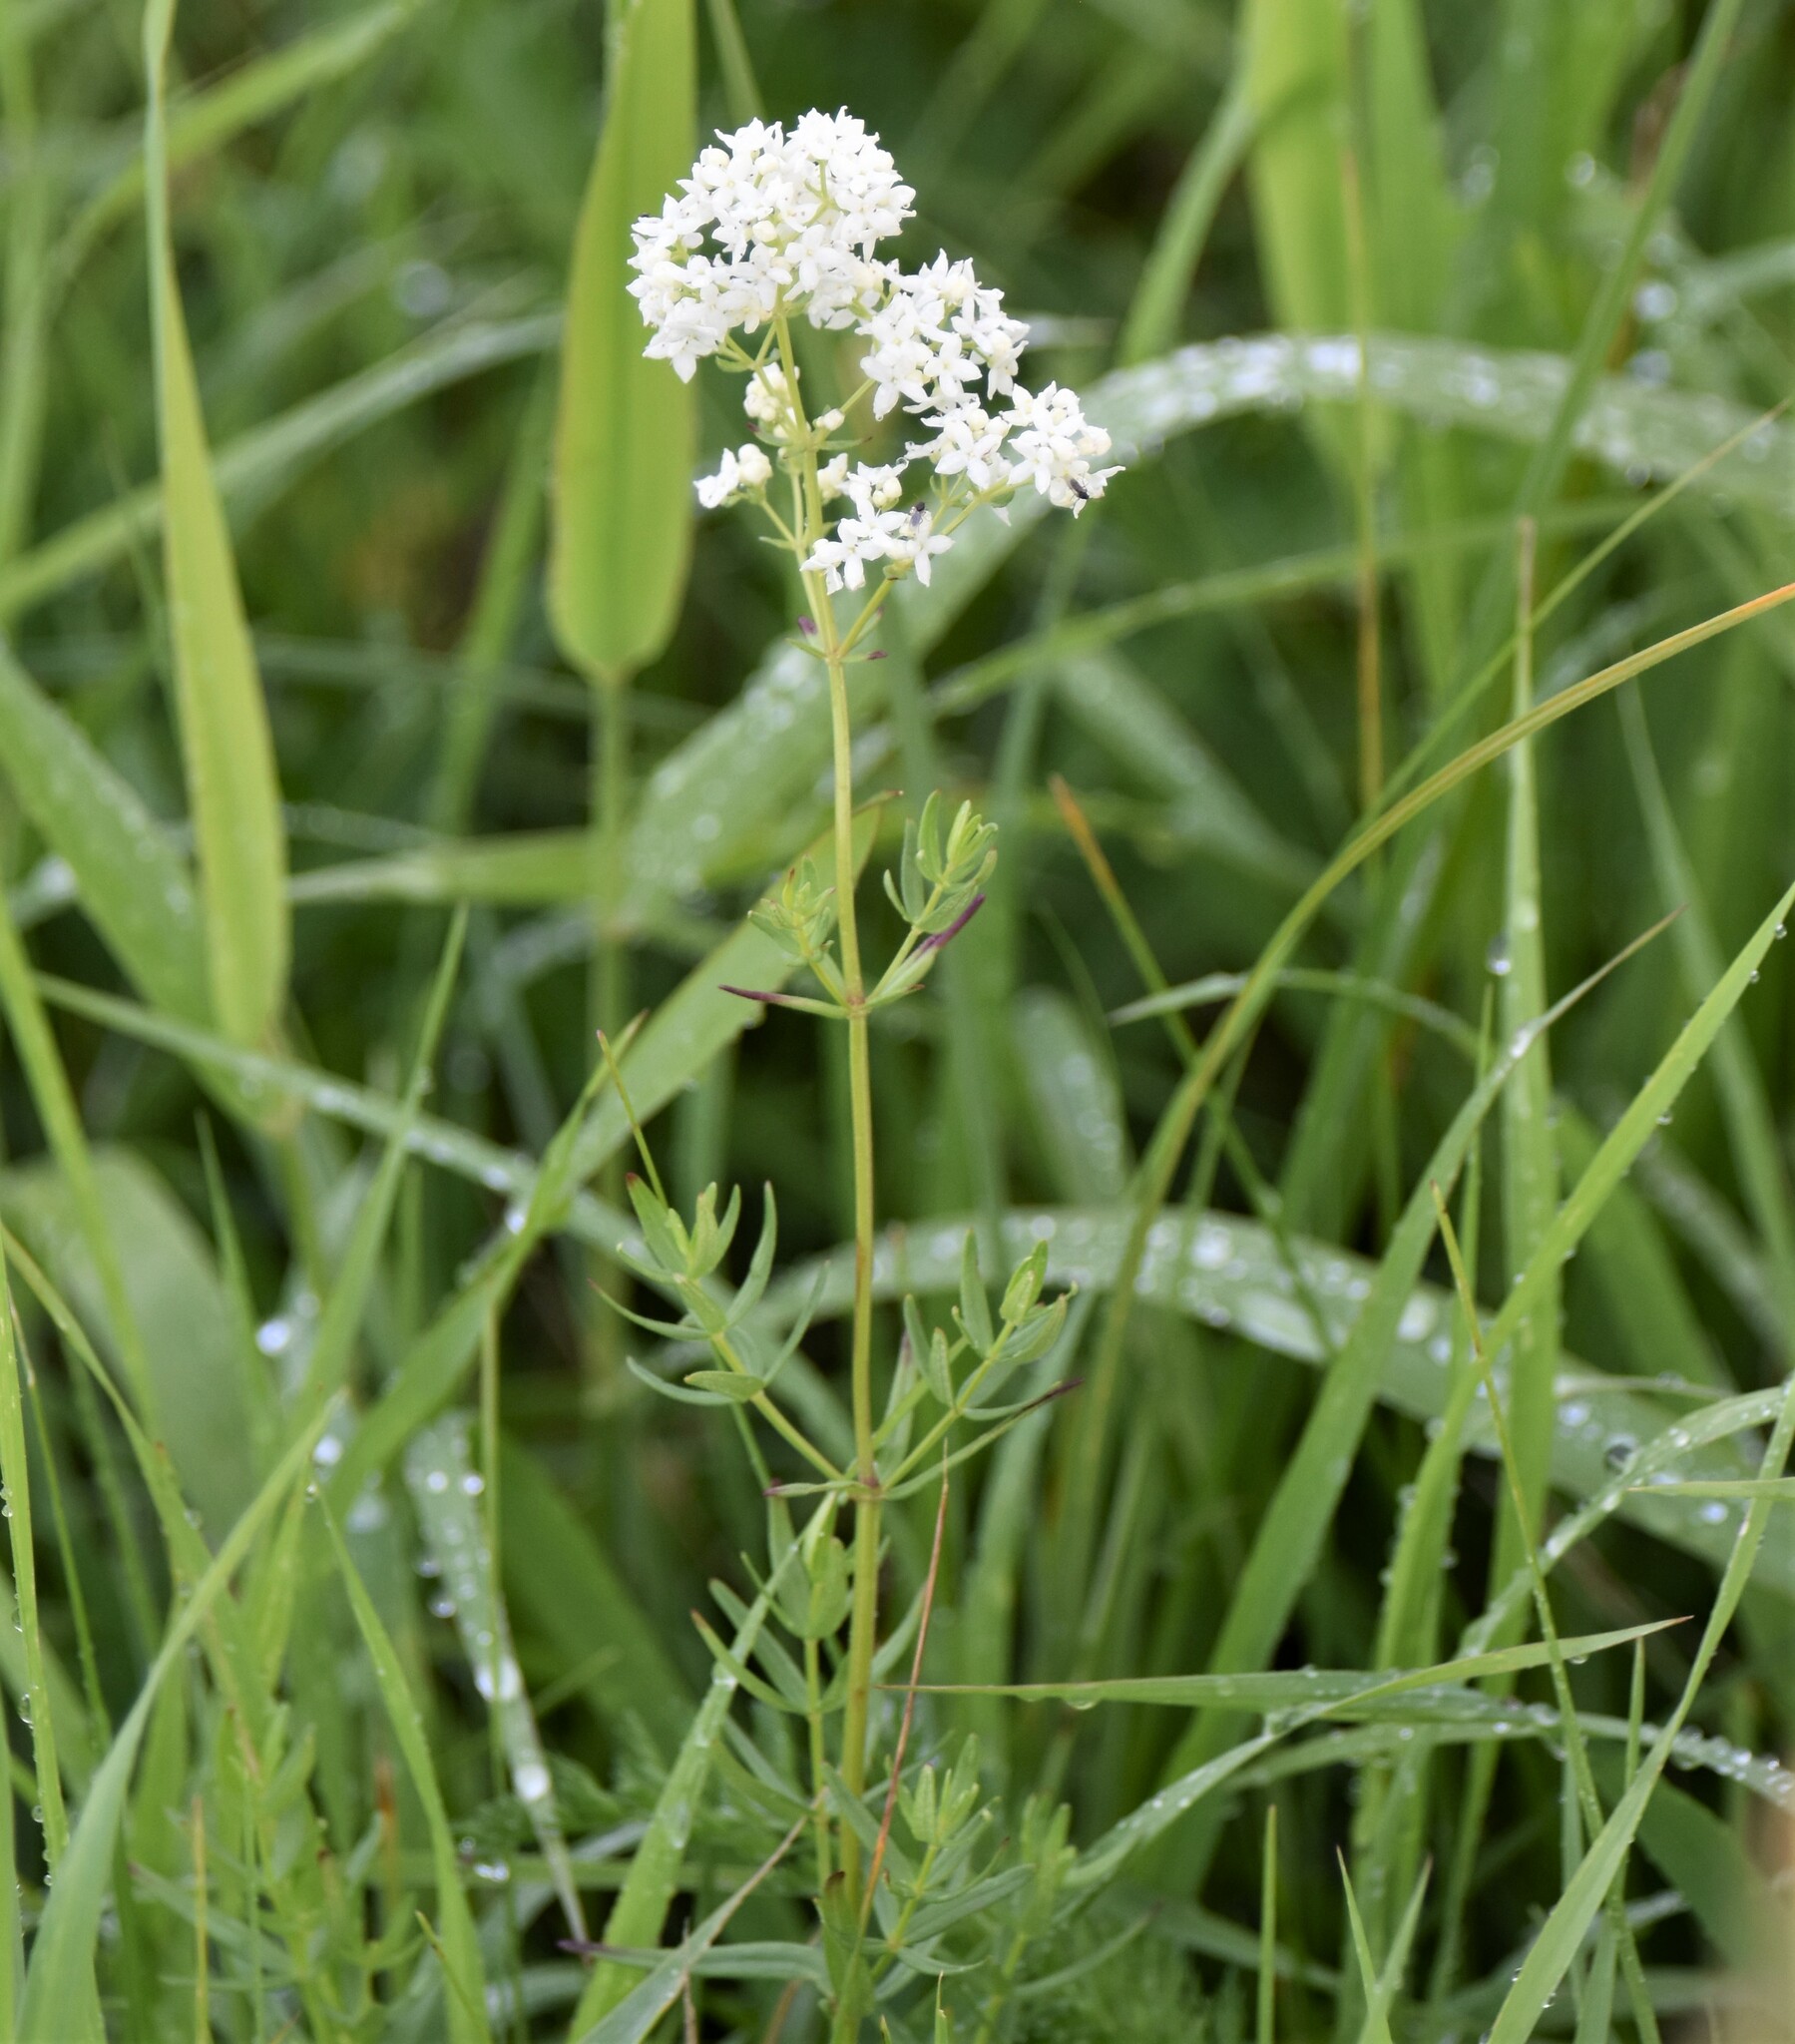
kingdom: Plantae
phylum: Tracheophyta
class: Magnoliopsida
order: Gentianales
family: Rubiaceae
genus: Galium
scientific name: Galium boreale
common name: Northern bedstraw
